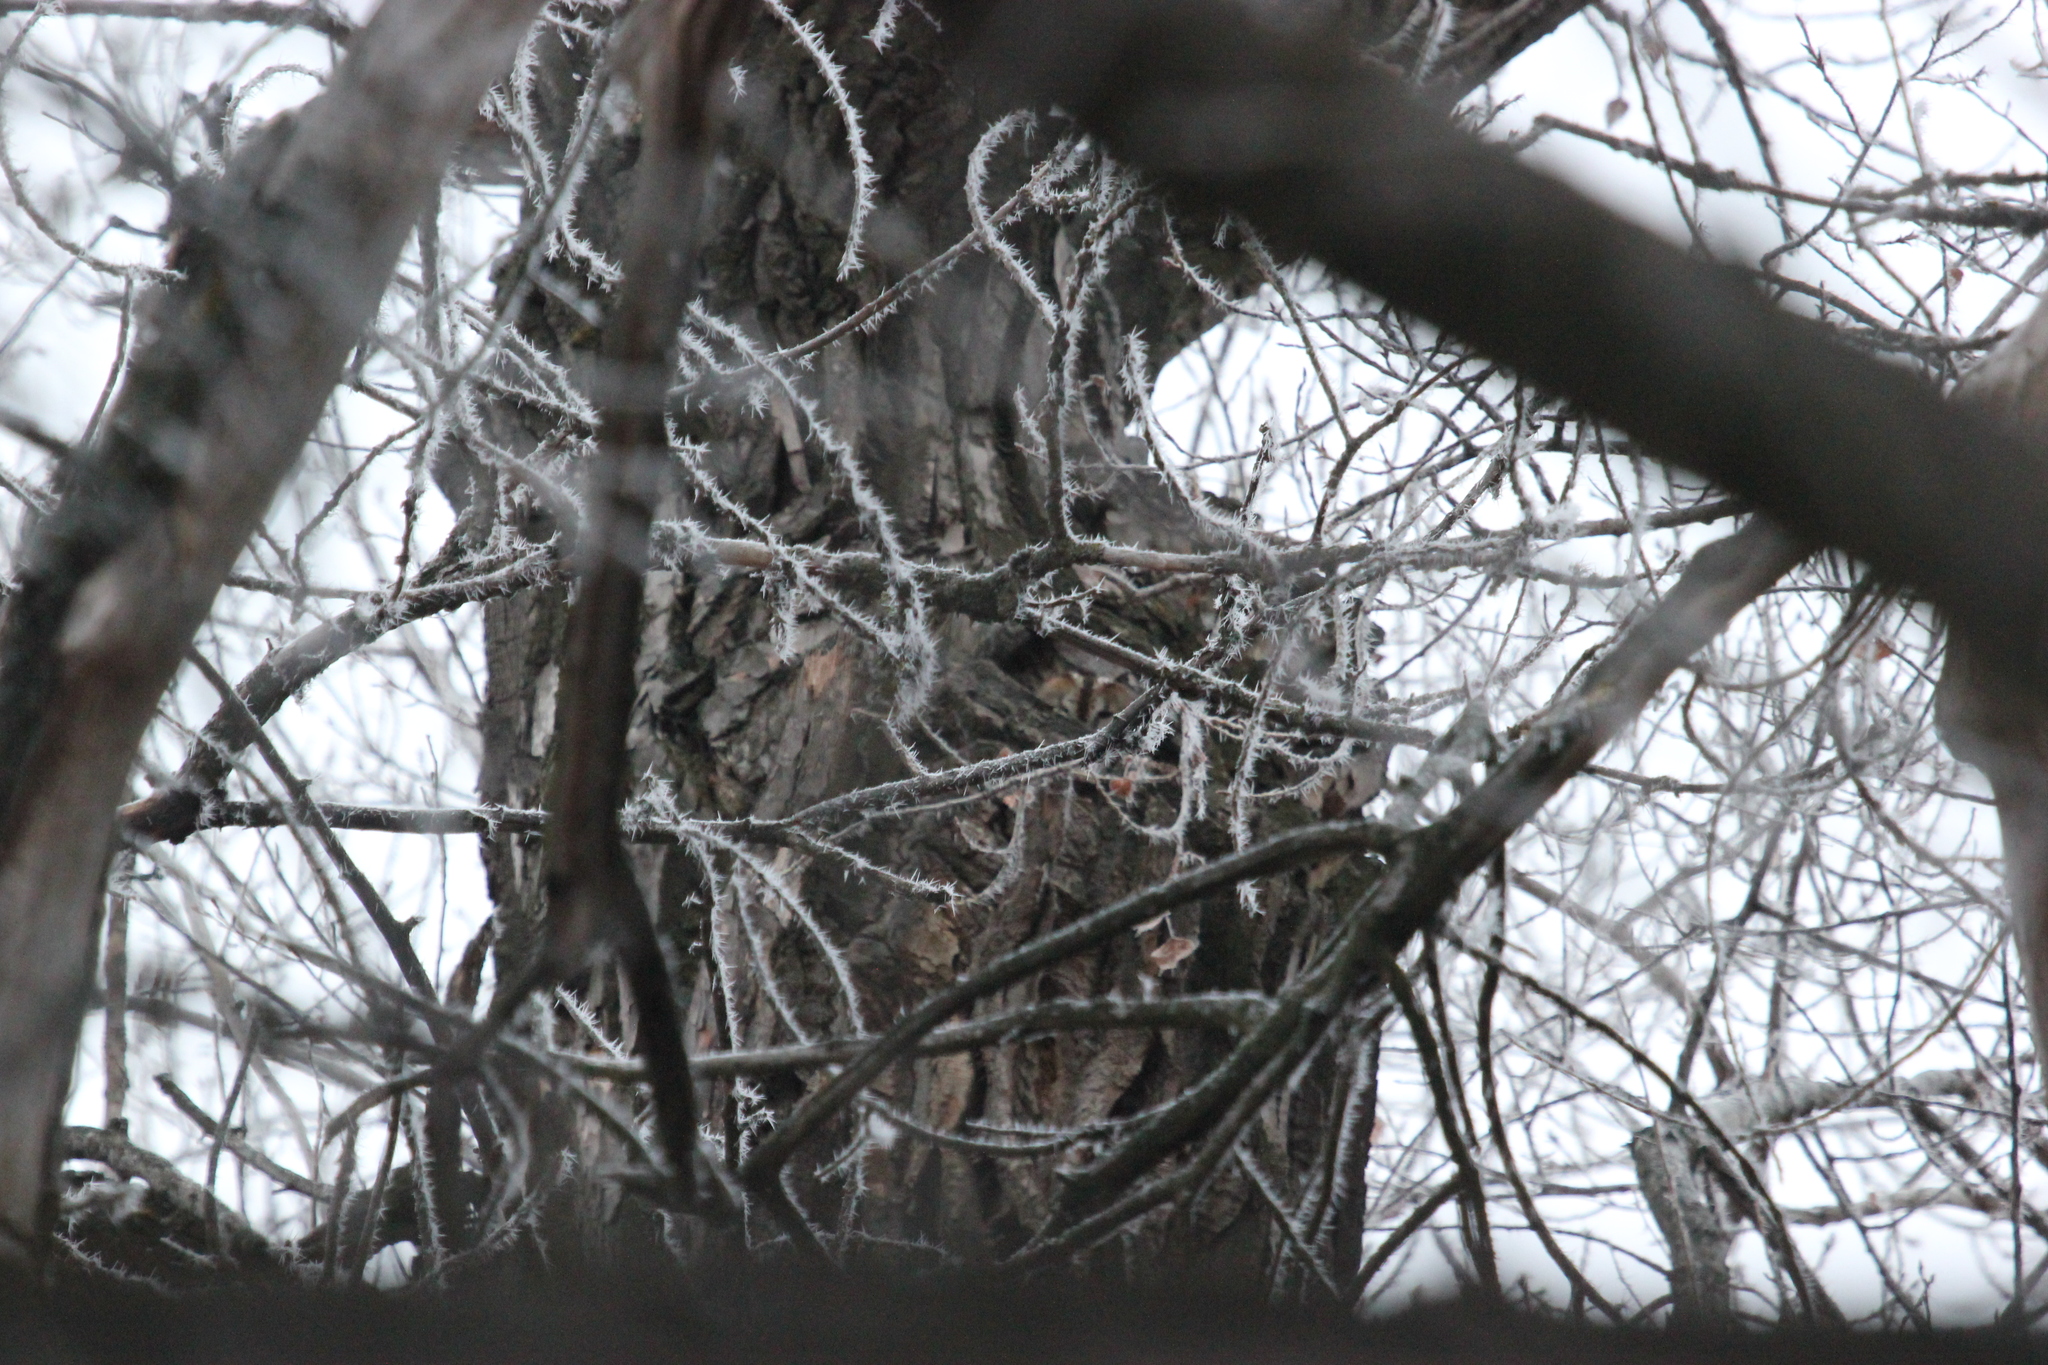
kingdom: Animalia
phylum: Chordata
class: Aves
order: Strigiformes
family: Strigidae
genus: Strix
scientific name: Strix aluco
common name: Tawny owl
